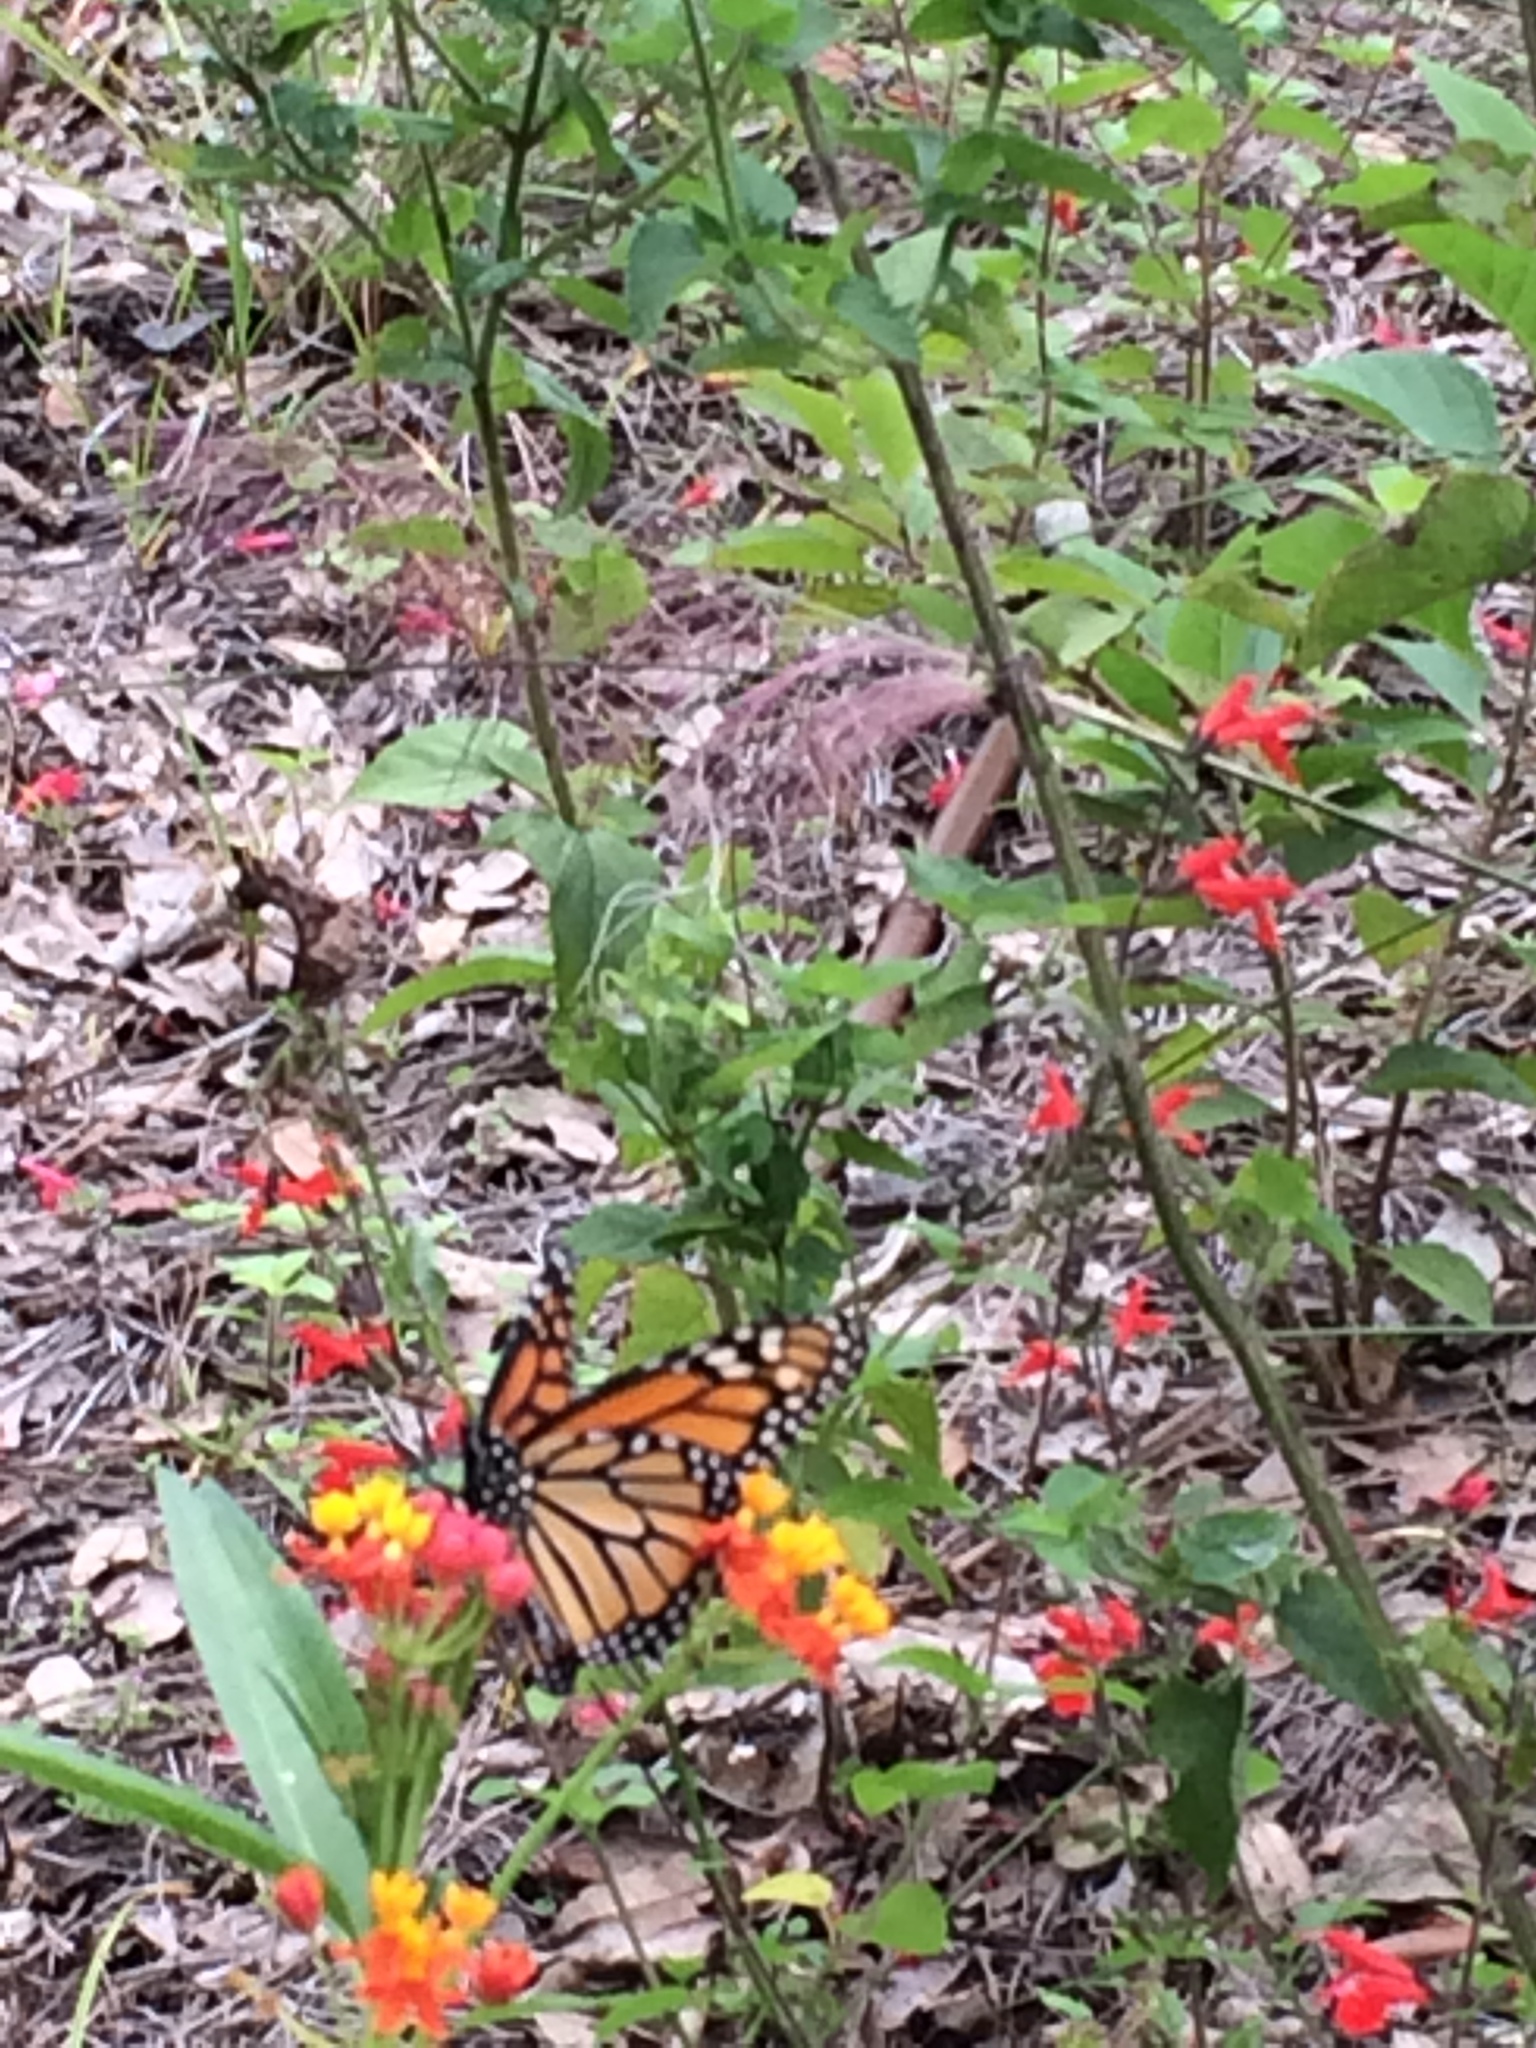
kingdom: Animalia
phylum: Arthropoda
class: Insecta
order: Lepidoptera
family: Nymphalidae
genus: Danaus
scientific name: Danaus plexippus
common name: Monarch
